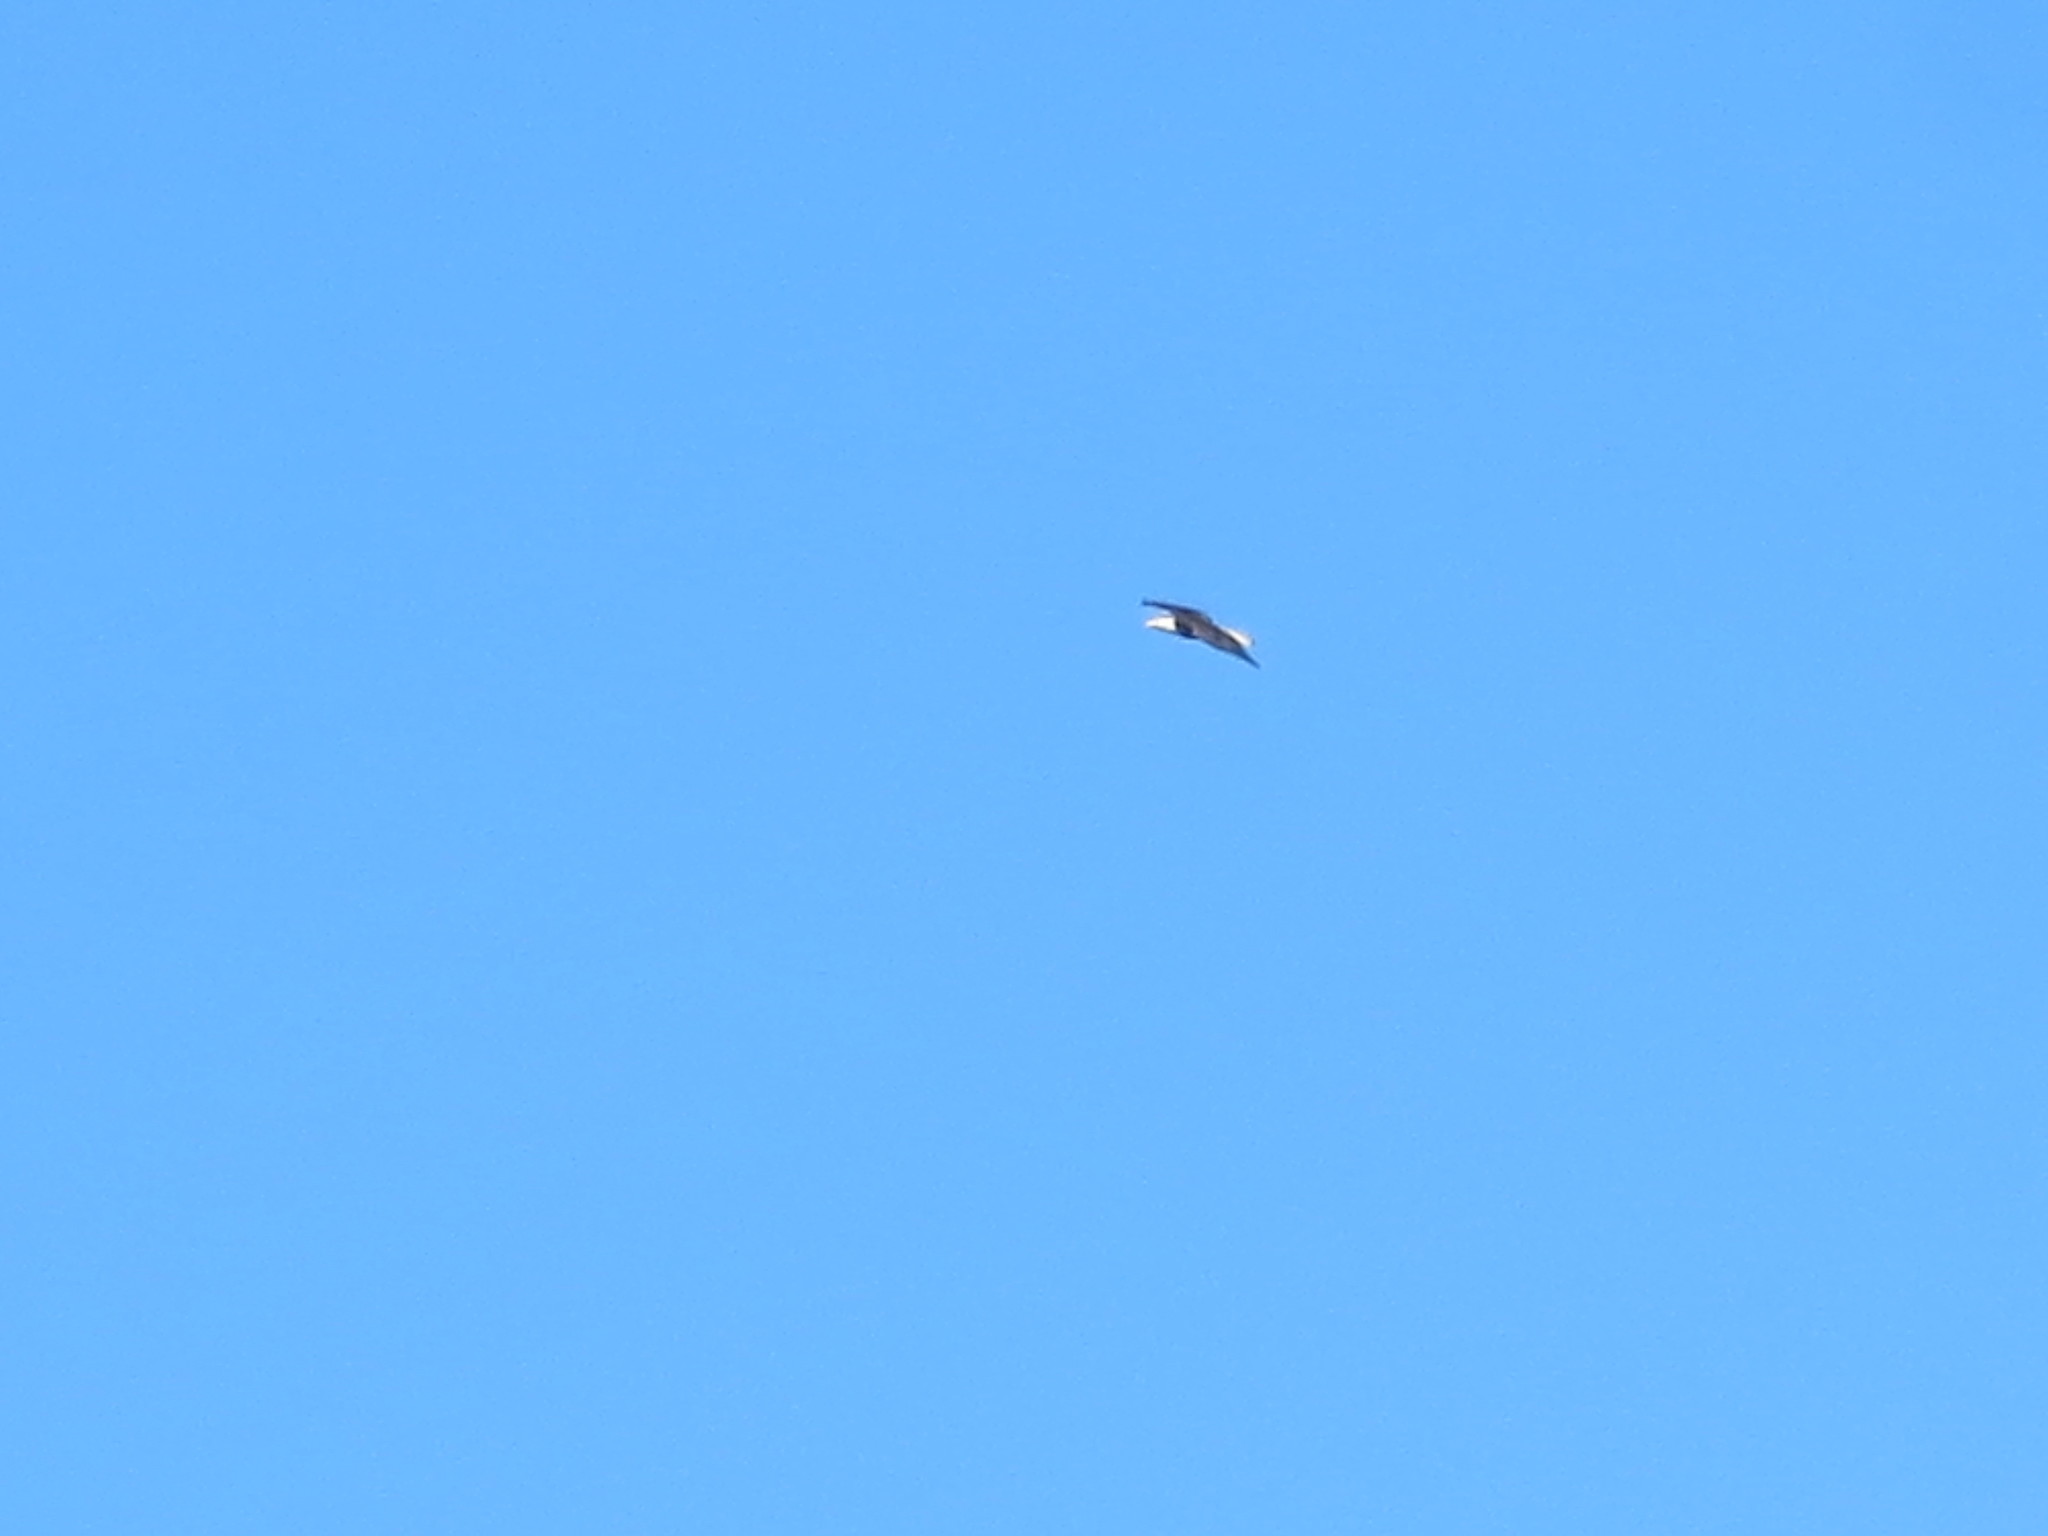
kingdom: Animalia
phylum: Chordata
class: Aves
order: Accipitriformes
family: Accipitridae
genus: Haliaeetus
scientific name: Haliaeetus leucocephalus
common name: Bald eagle
